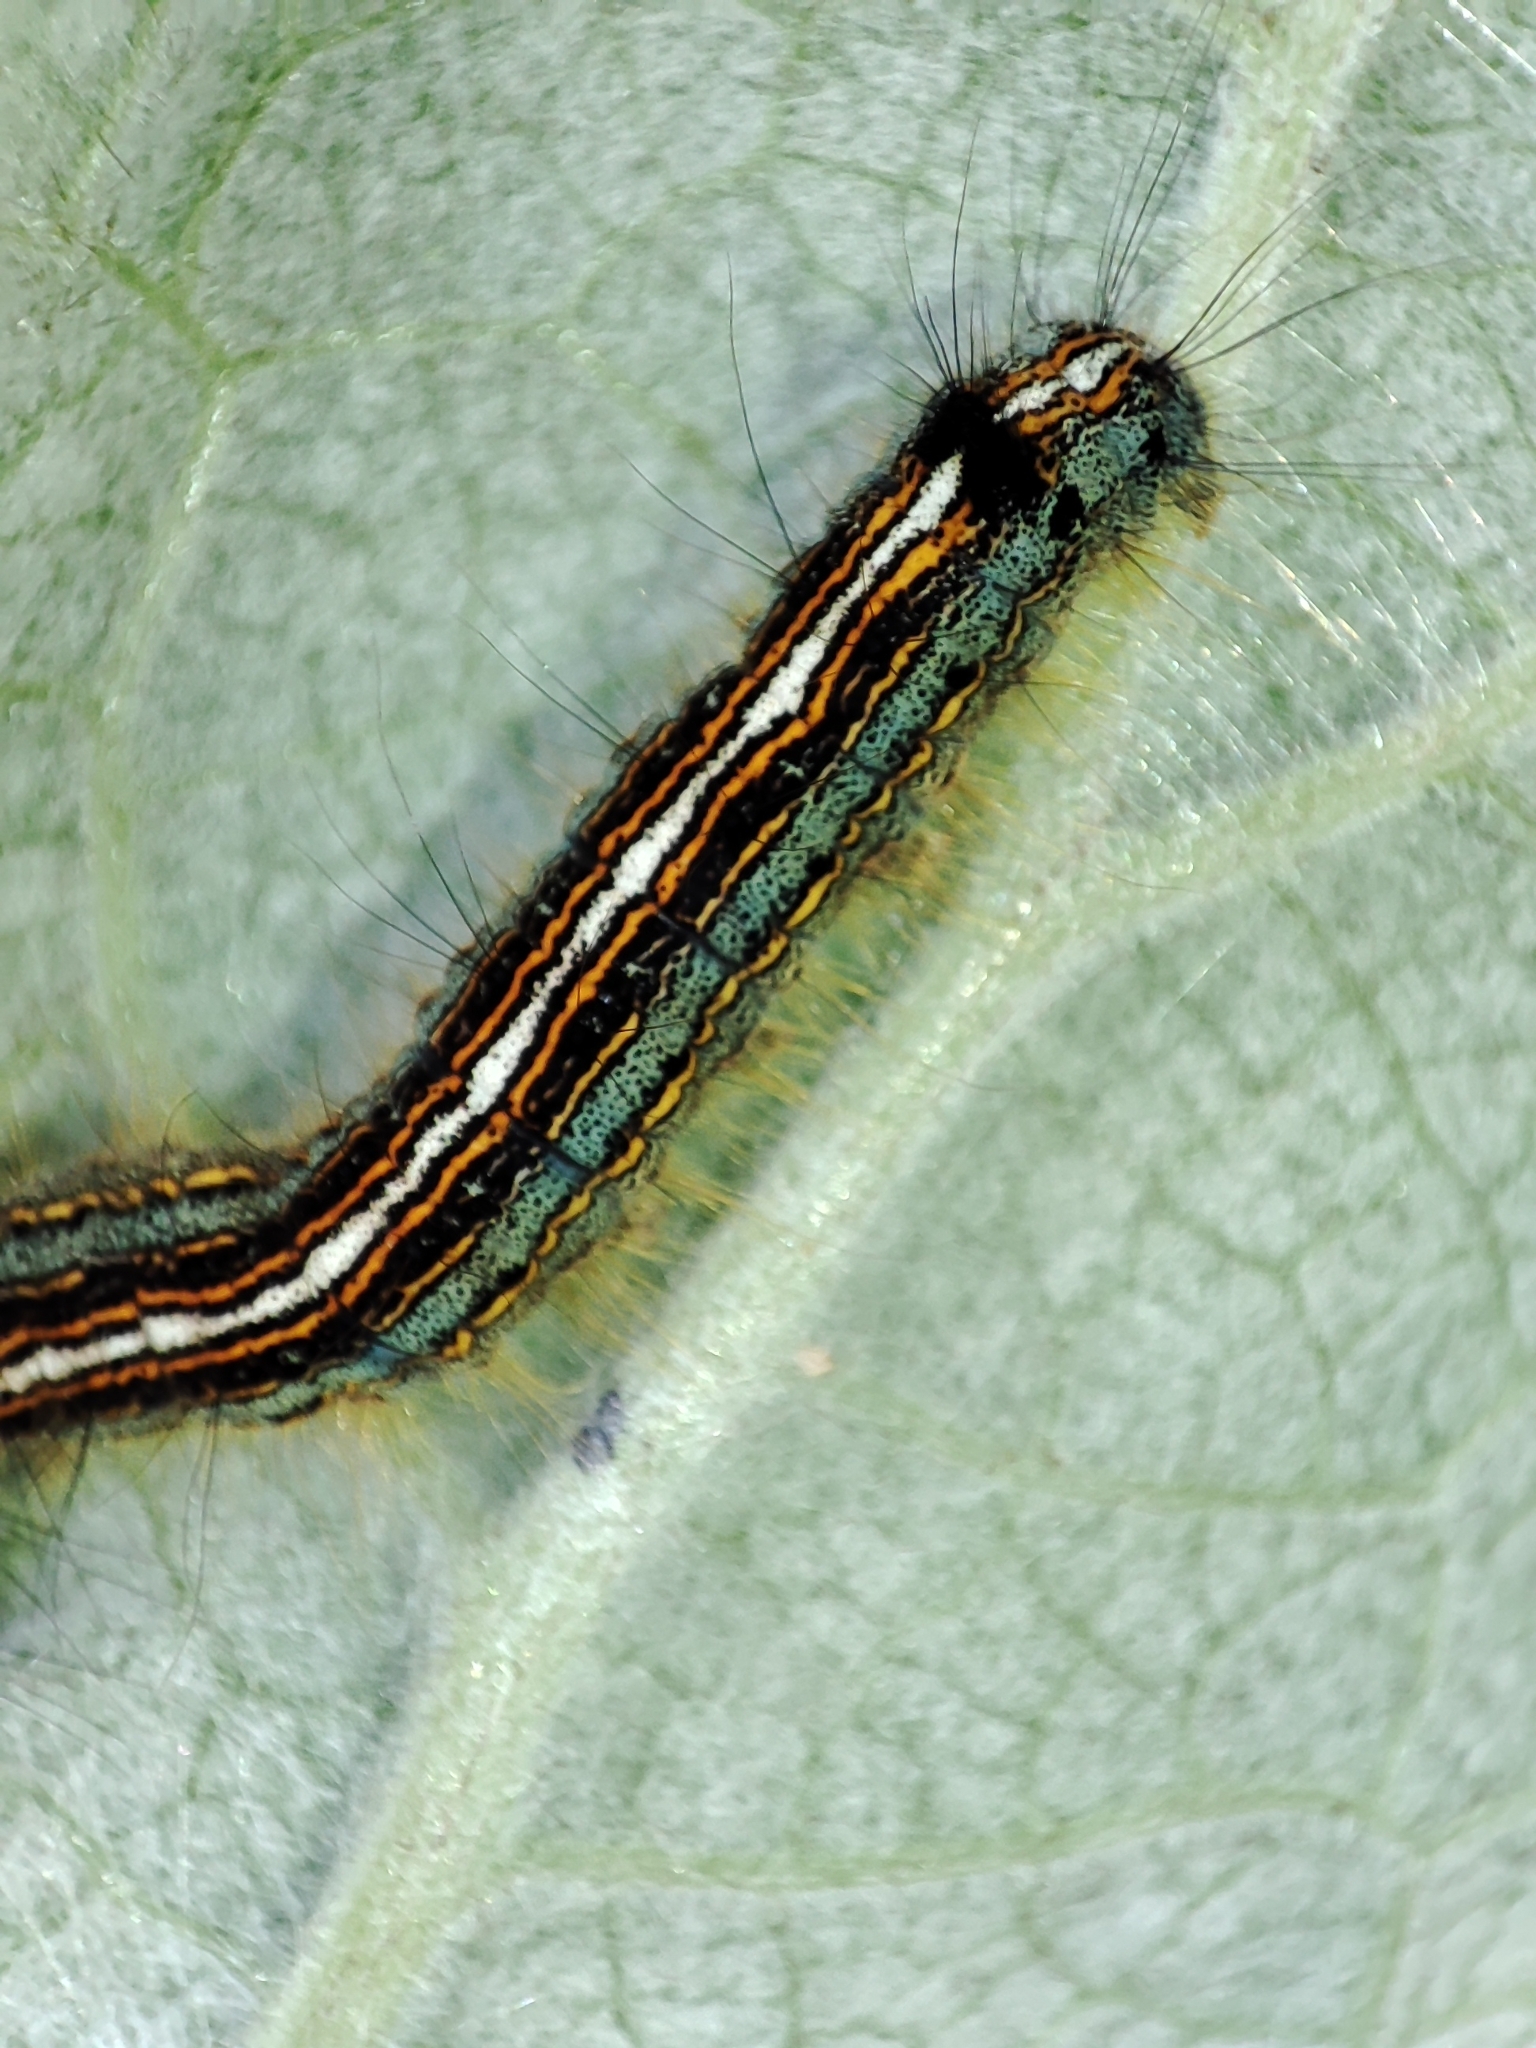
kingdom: Animalia
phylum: Arthropoda
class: Insecta
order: Lepidoptera
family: Lasiocampidae
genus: Malacosoma
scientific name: Malacosoma neustria
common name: The lackey
